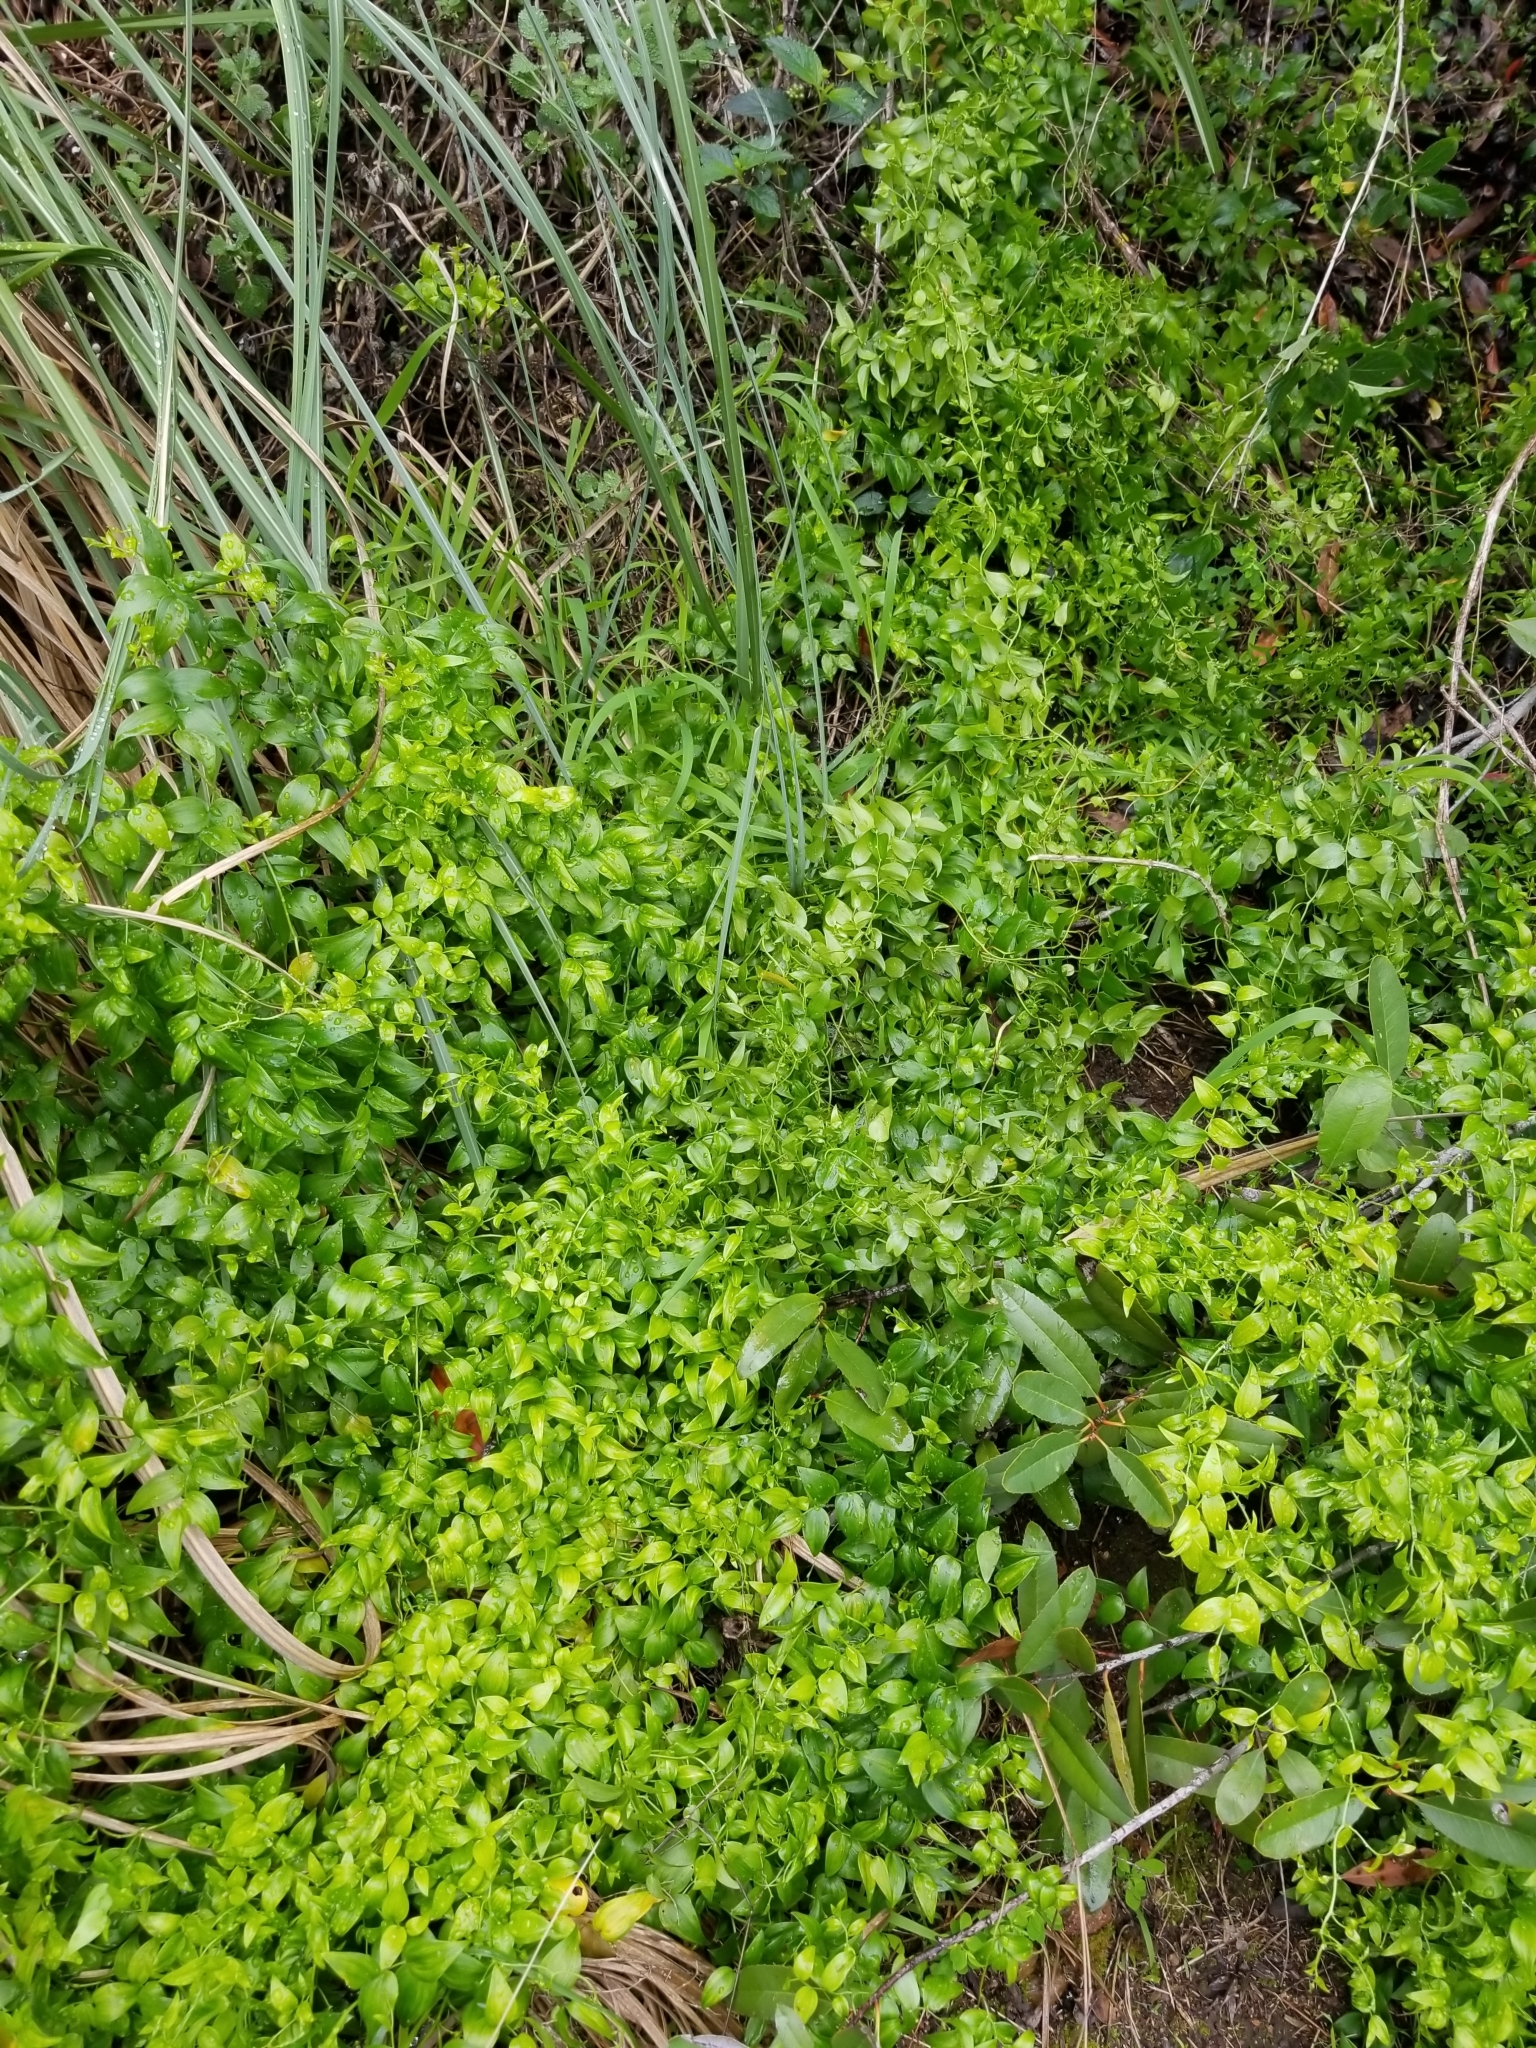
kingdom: Plantae
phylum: Tracheophyta
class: Liliopsida
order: Asparagales
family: Asparagaceae
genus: Asparagus
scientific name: Asparagus asparagoides
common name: African asparagus fern
